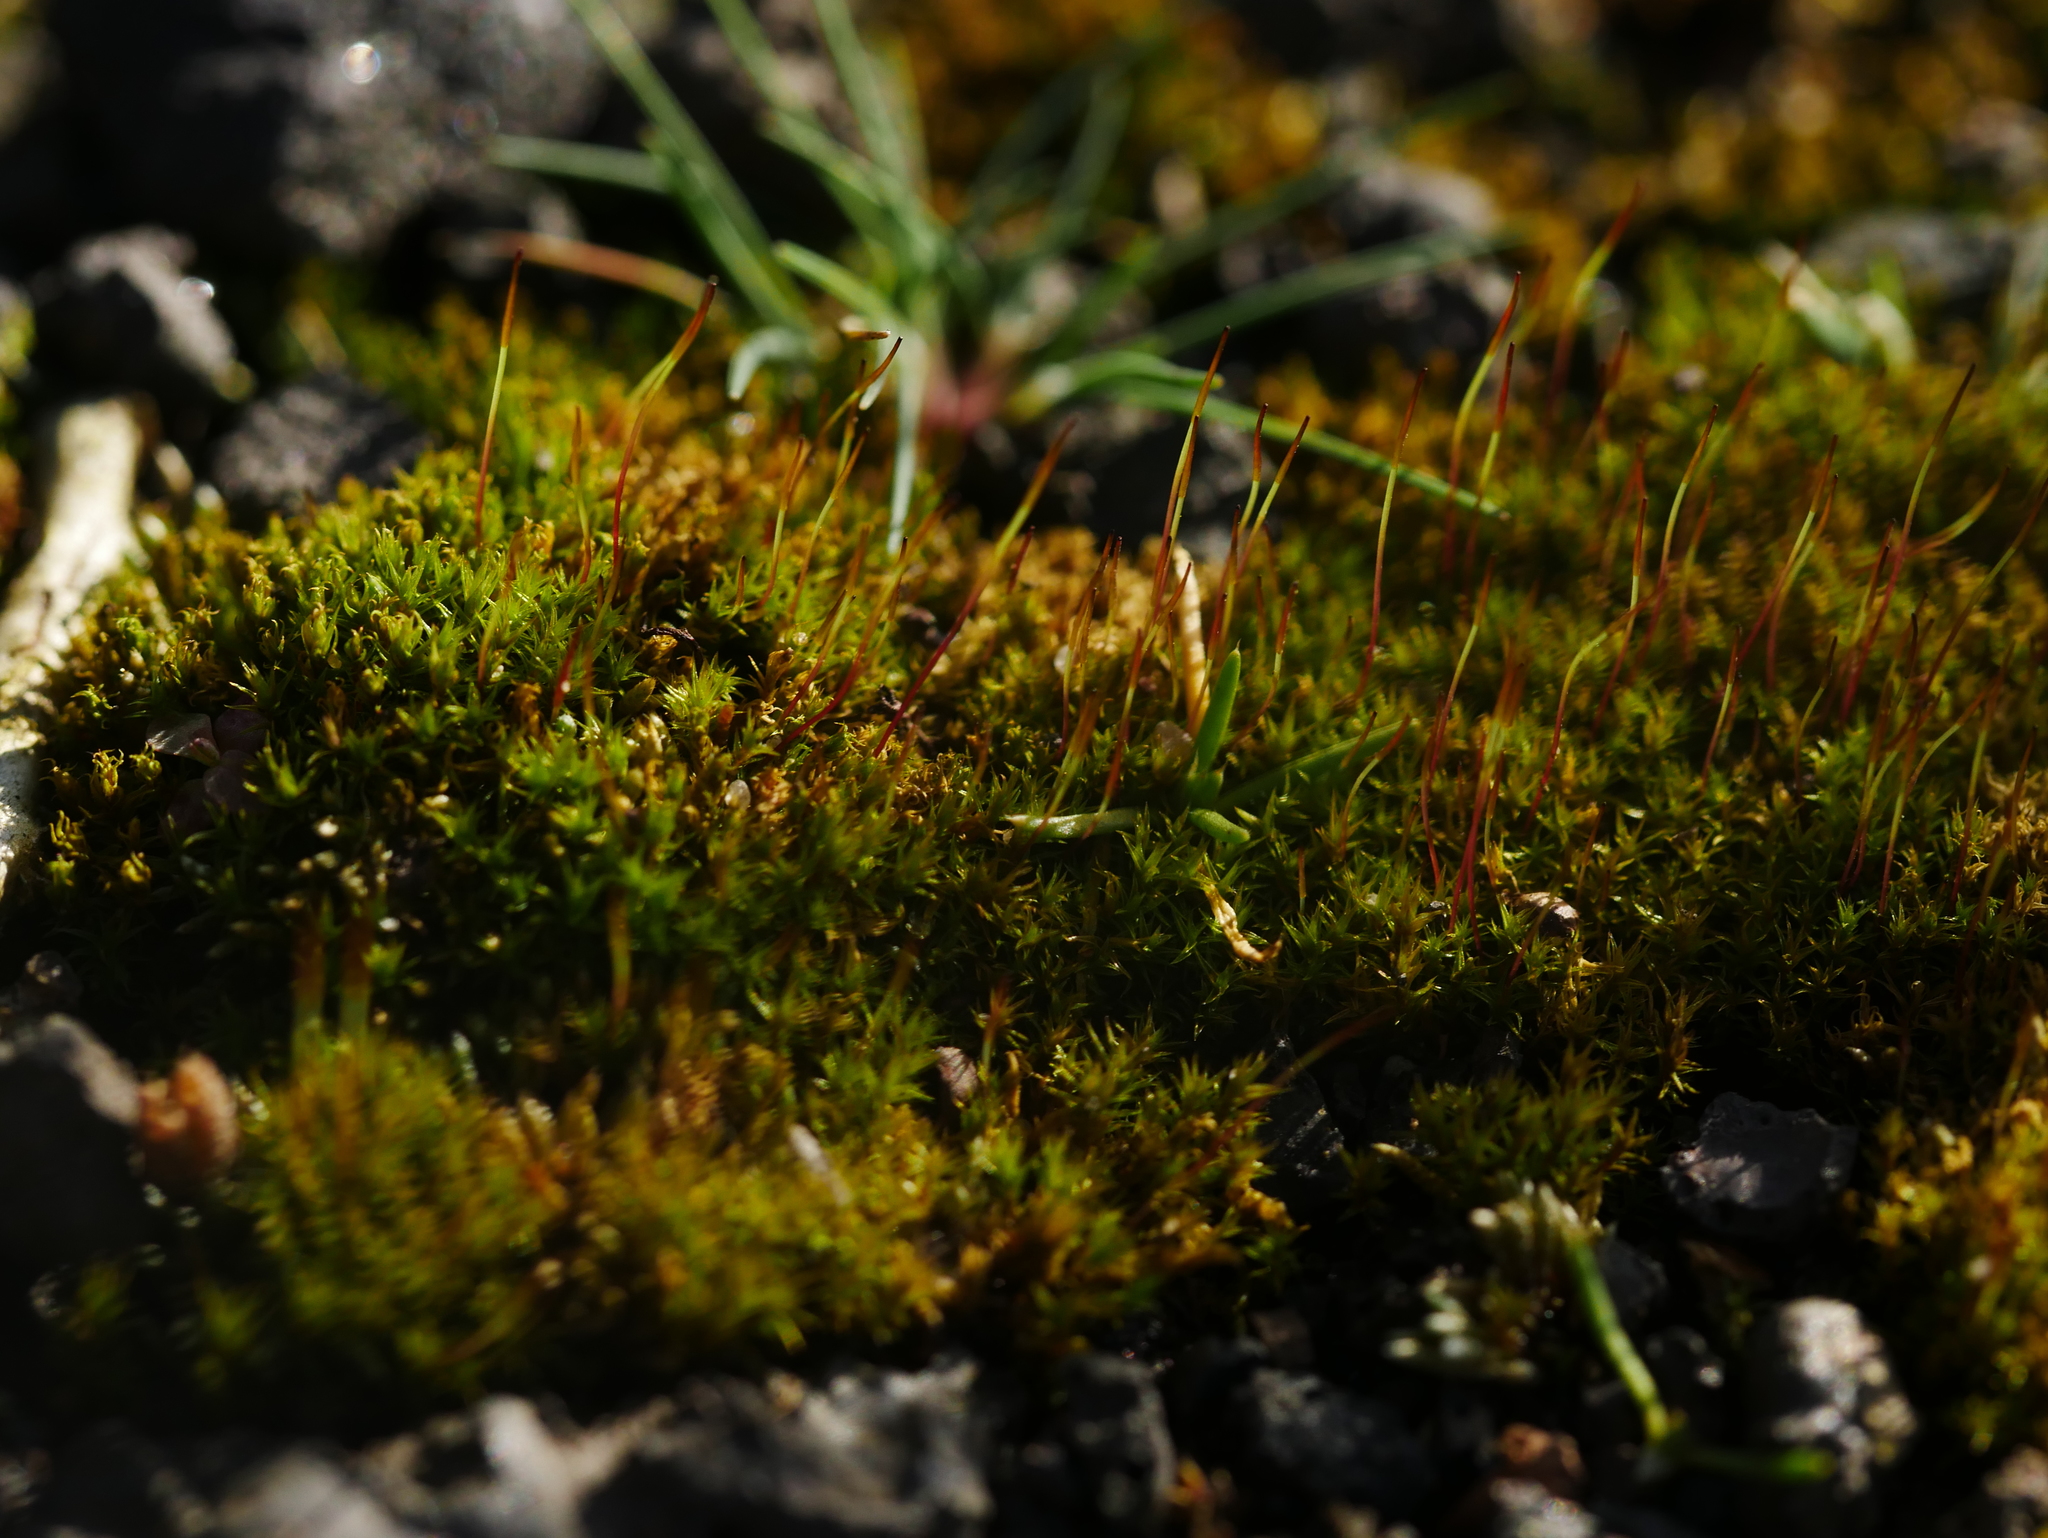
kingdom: Plantae
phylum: Bryophyta
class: Bryopsida
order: Dicranales
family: Ditrichaceae
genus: Ceratodon
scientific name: Ceratodon purpureus
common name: Redshank
